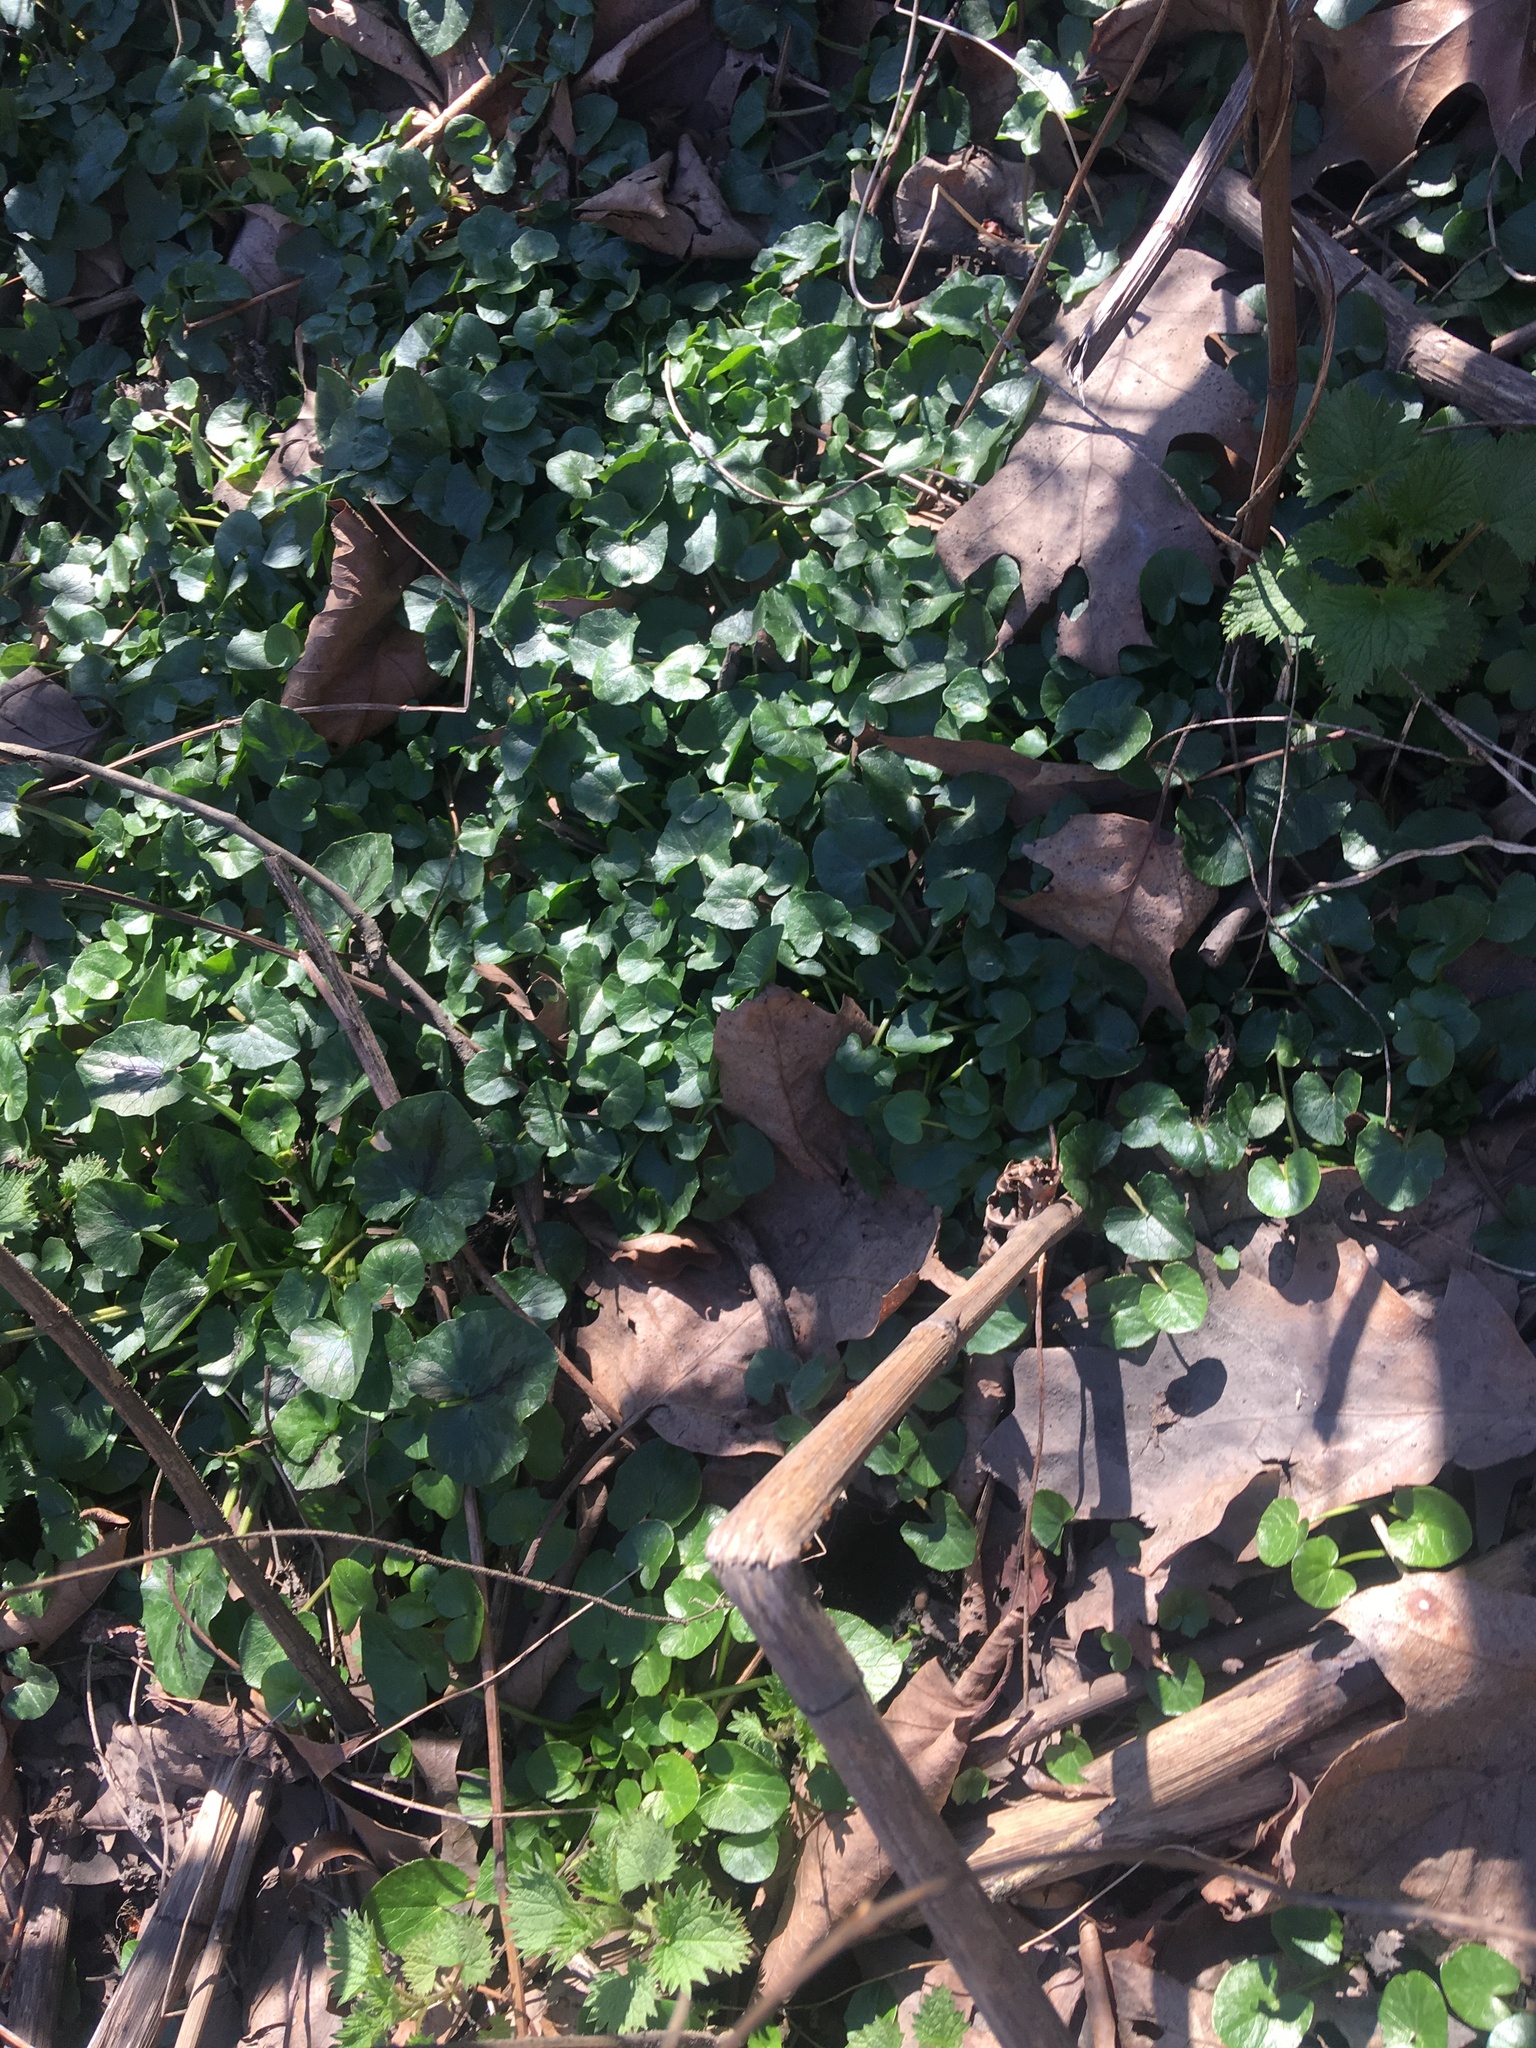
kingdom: Plantae
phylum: Tracheophyta
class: Magnoliopsida
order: Ranunculales
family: Ranunculaceae
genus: Ficaria
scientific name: Ficaria verna
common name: Lesser celandine
